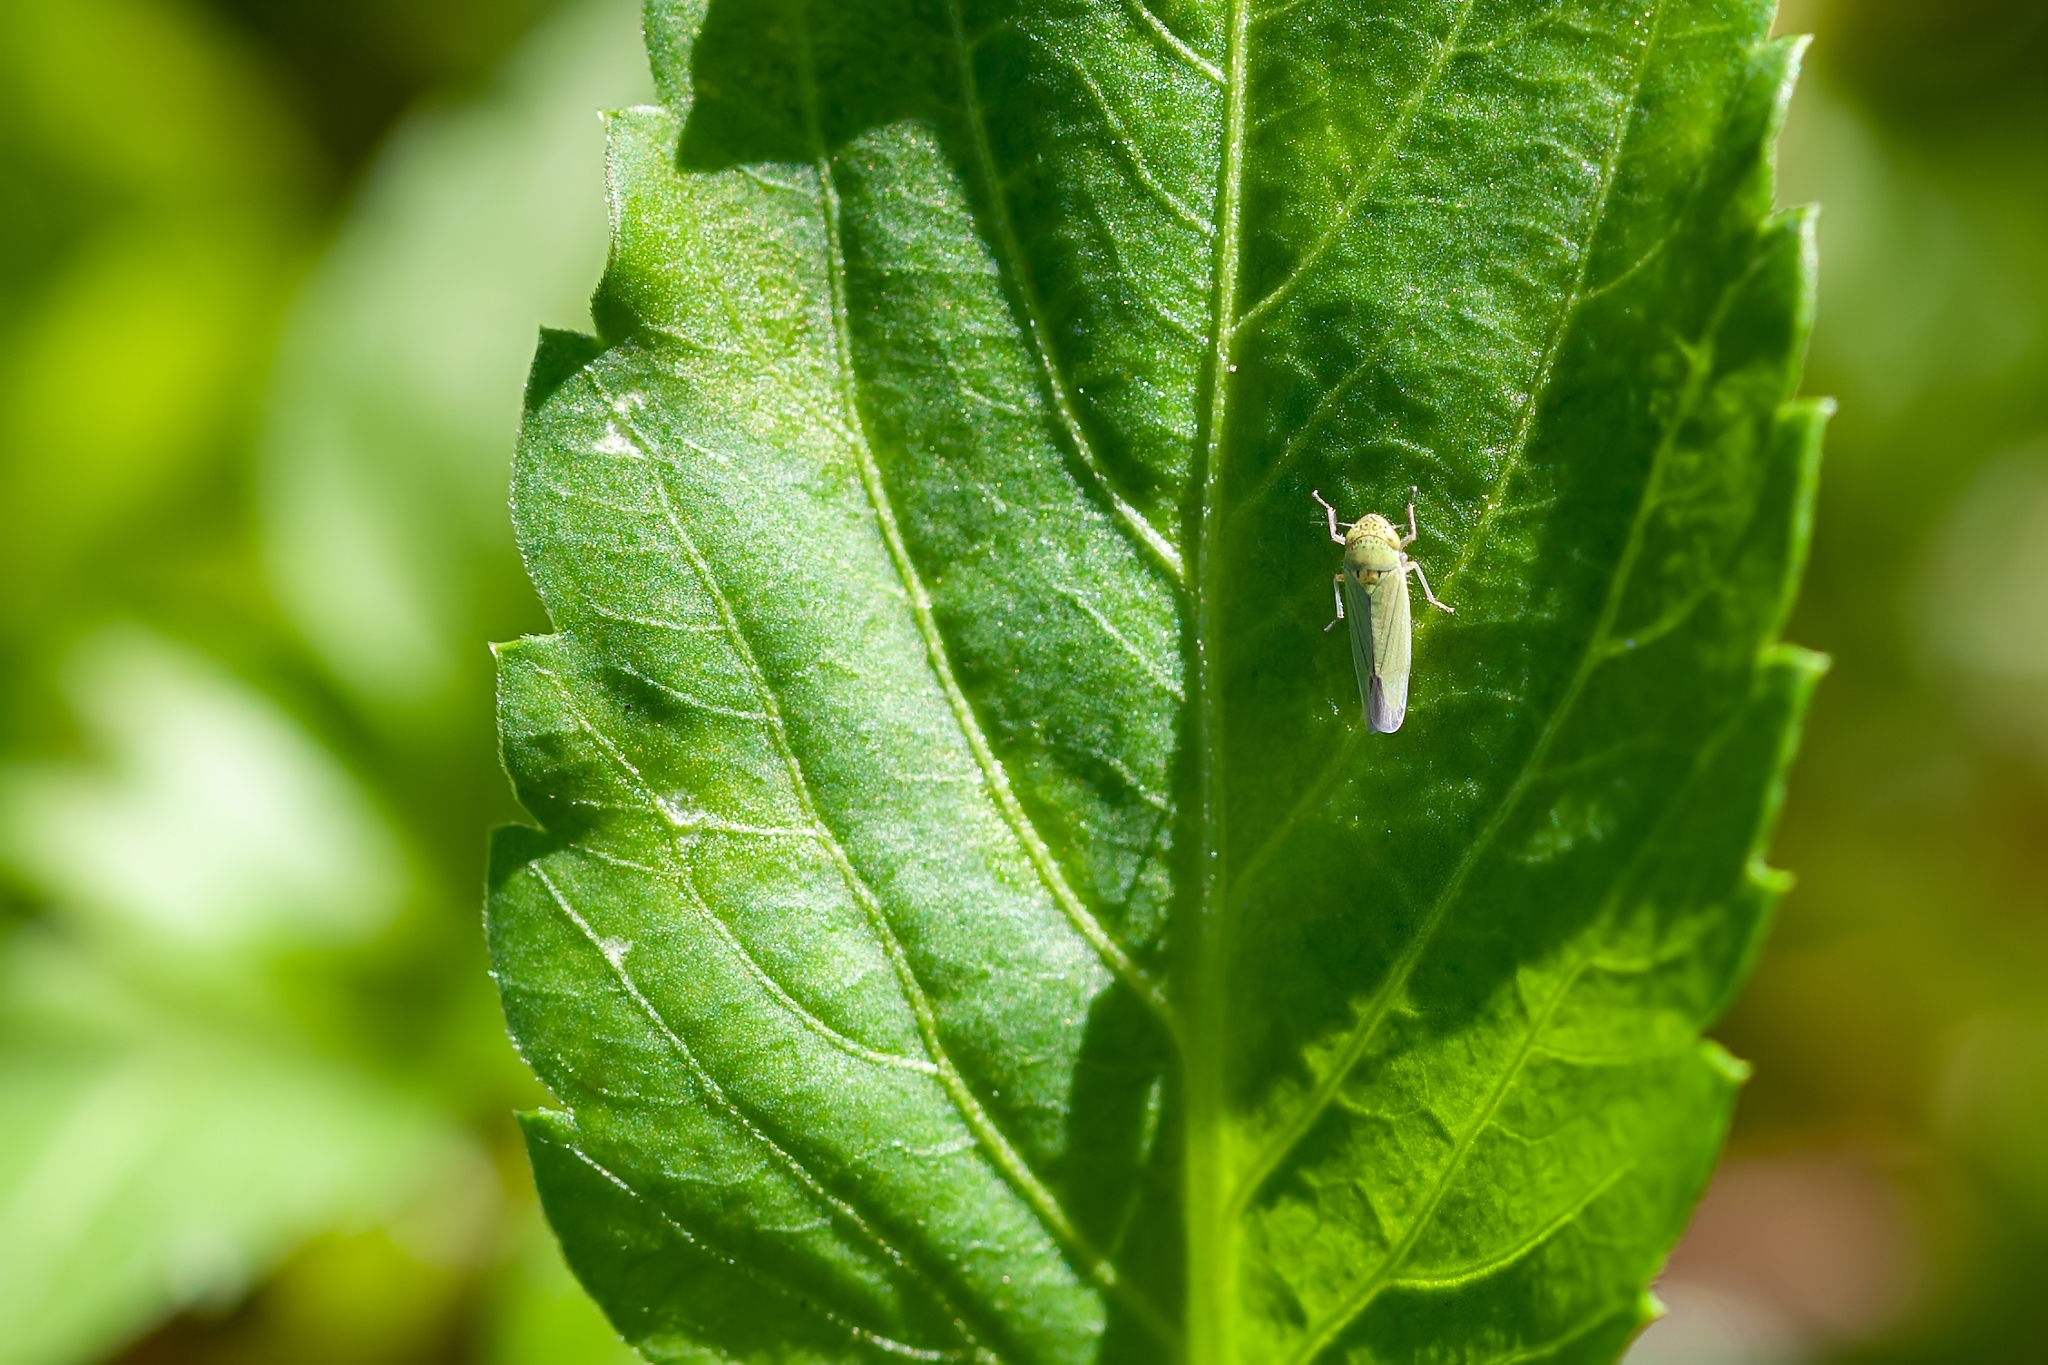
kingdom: Animalia
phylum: Arthropoda
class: Insecta
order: Hemiptera
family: Cicadellidae
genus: Hortensia
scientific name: Hortensia similis
